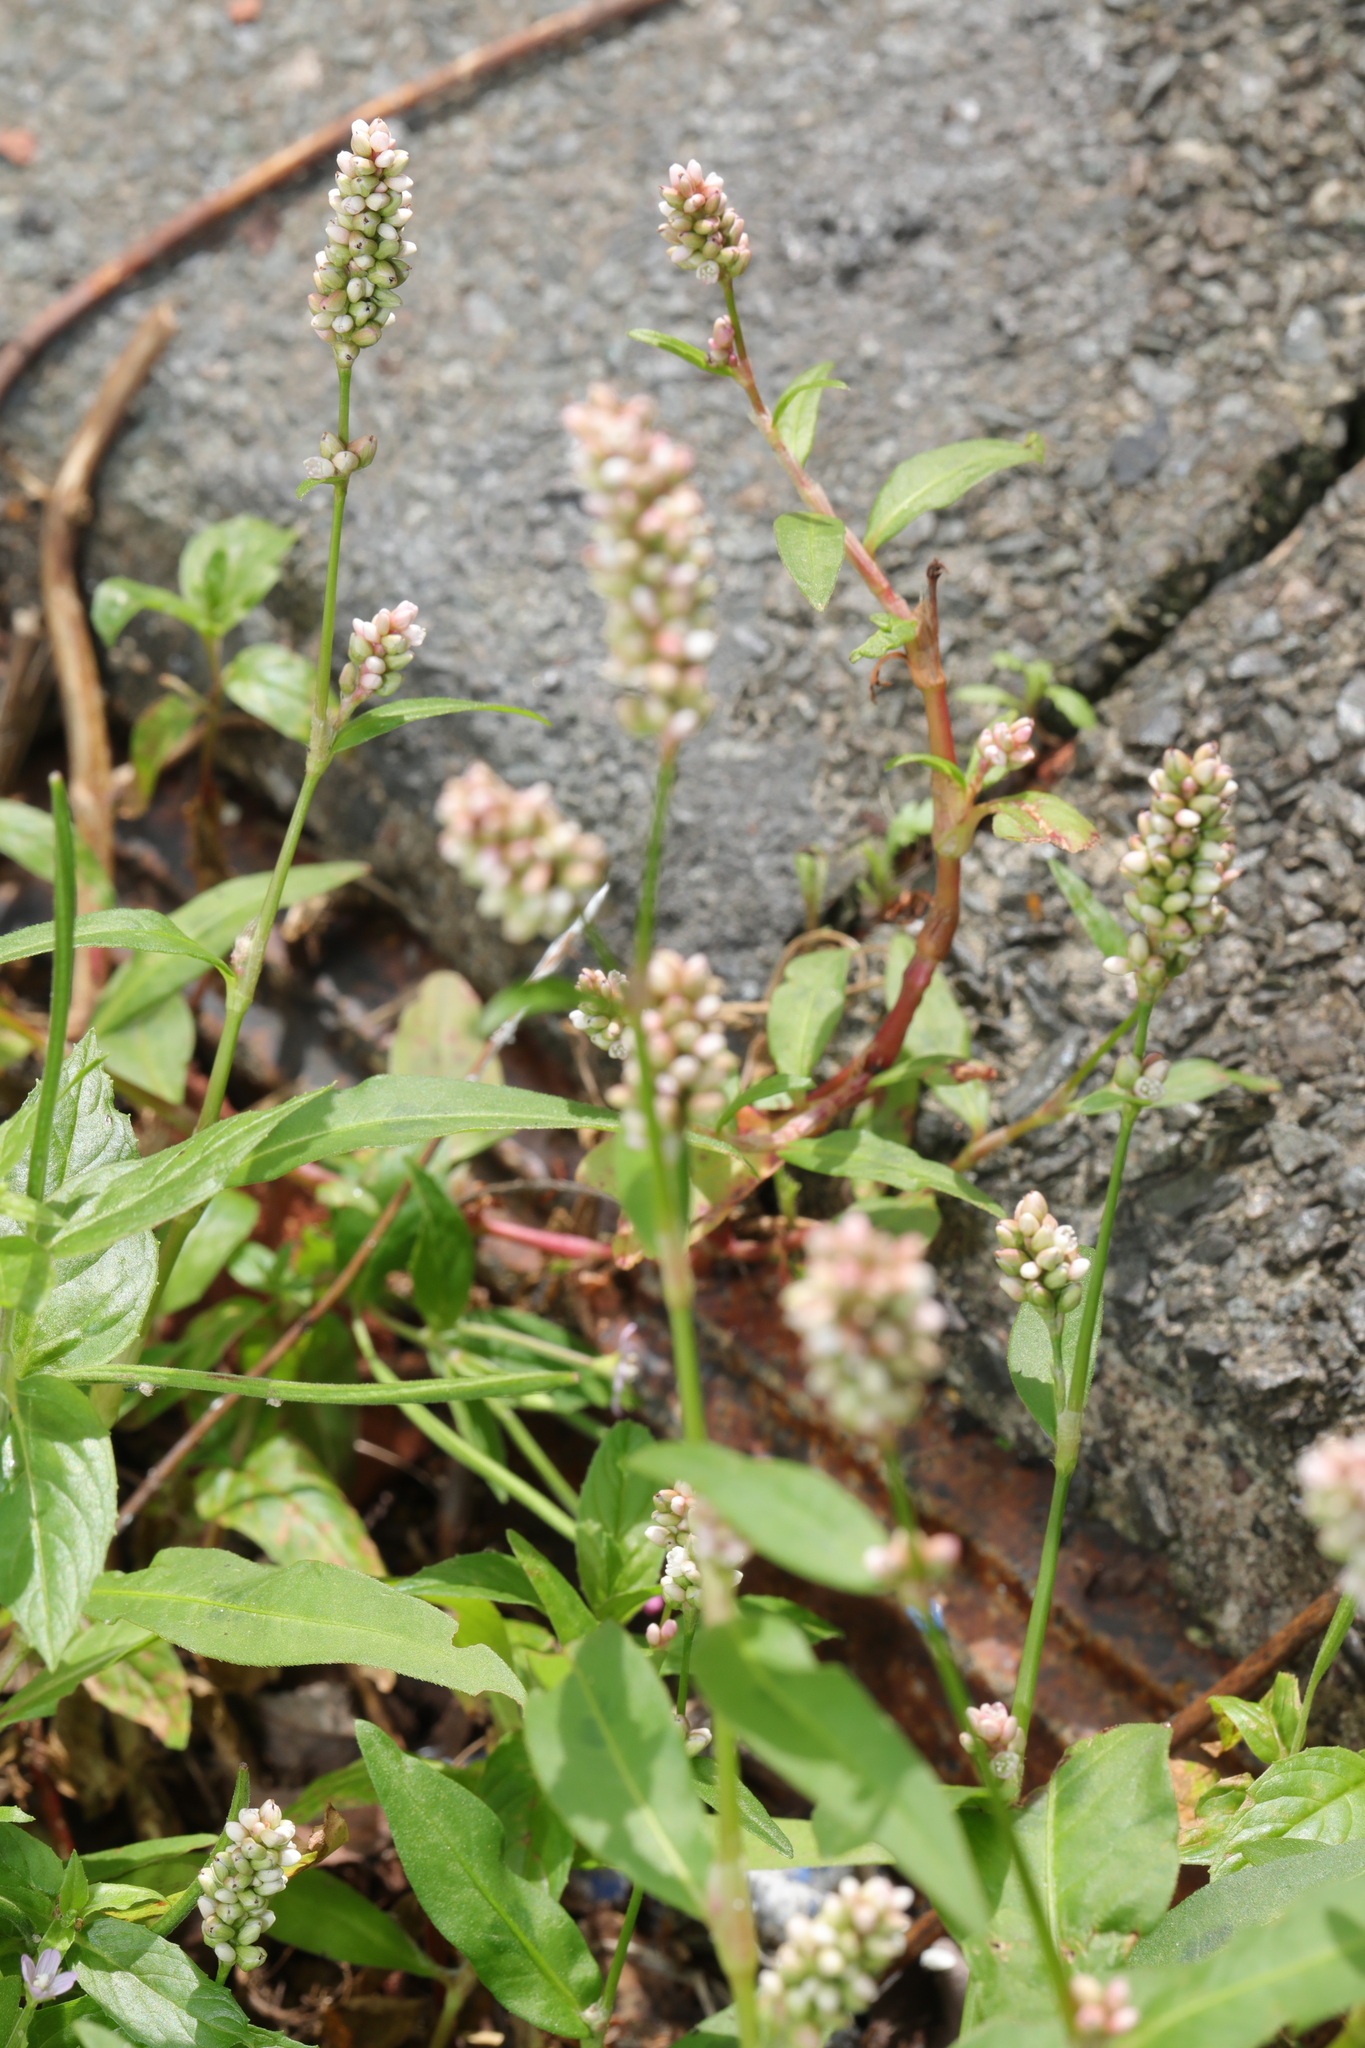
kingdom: Plantae
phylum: Tracheophyta
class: Magnoliopsida
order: Caryophyllales
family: Polygonaceae
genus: Persicaria
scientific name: Persicaria maculosa
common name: Redshank
